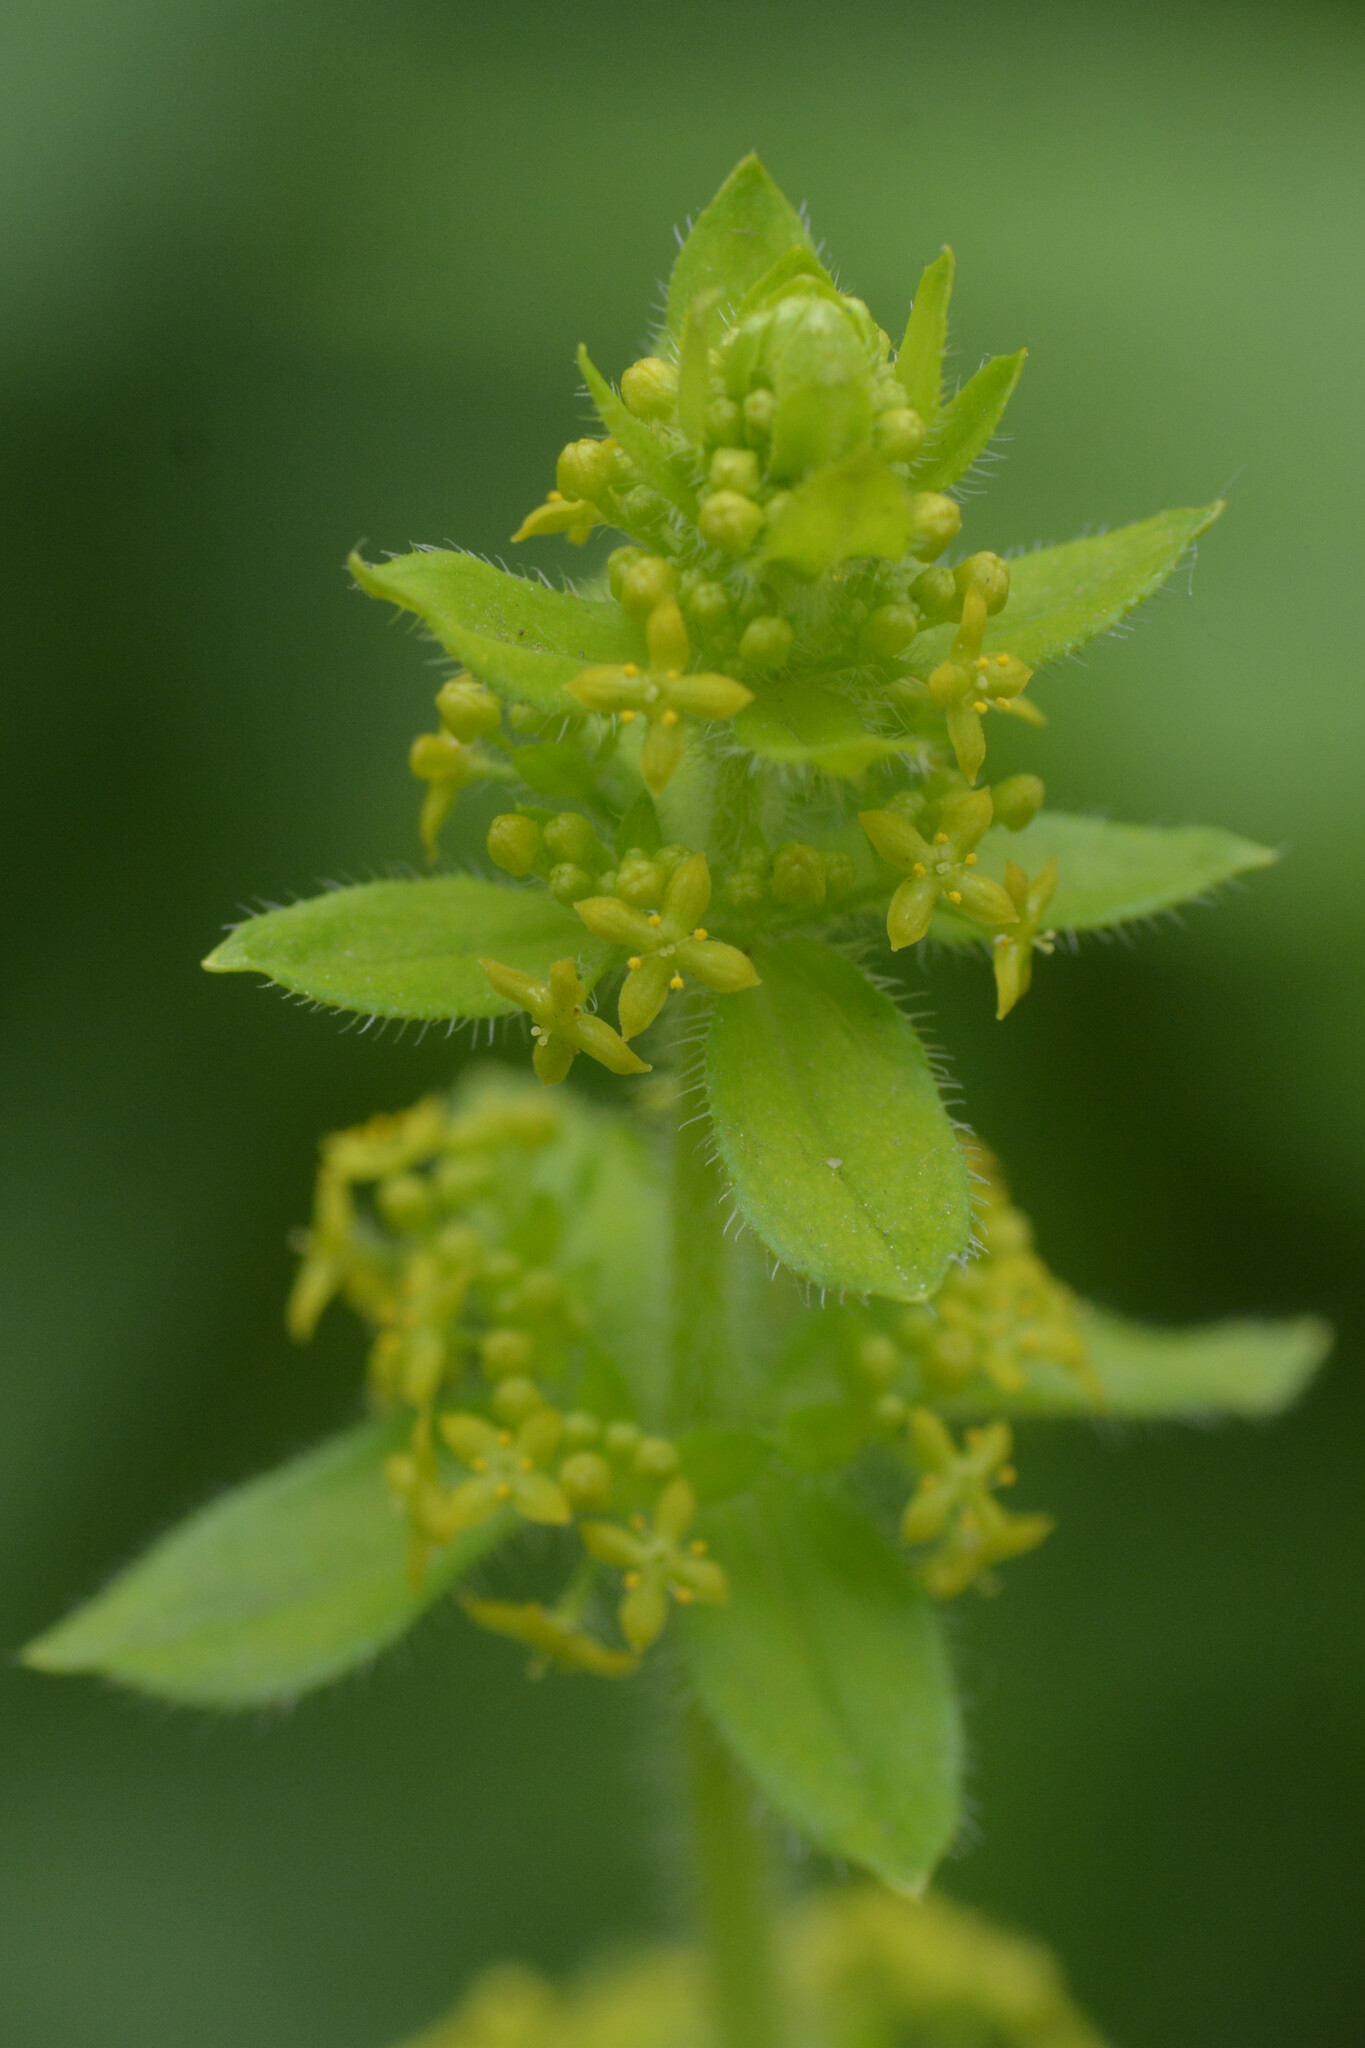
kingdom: Plantae
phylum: Tracheophyta
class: Magnoliopsida
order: Gentianales
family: Rubiaceae
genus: Cruciata
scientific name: Cruciata laevipes
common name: Crosswort
